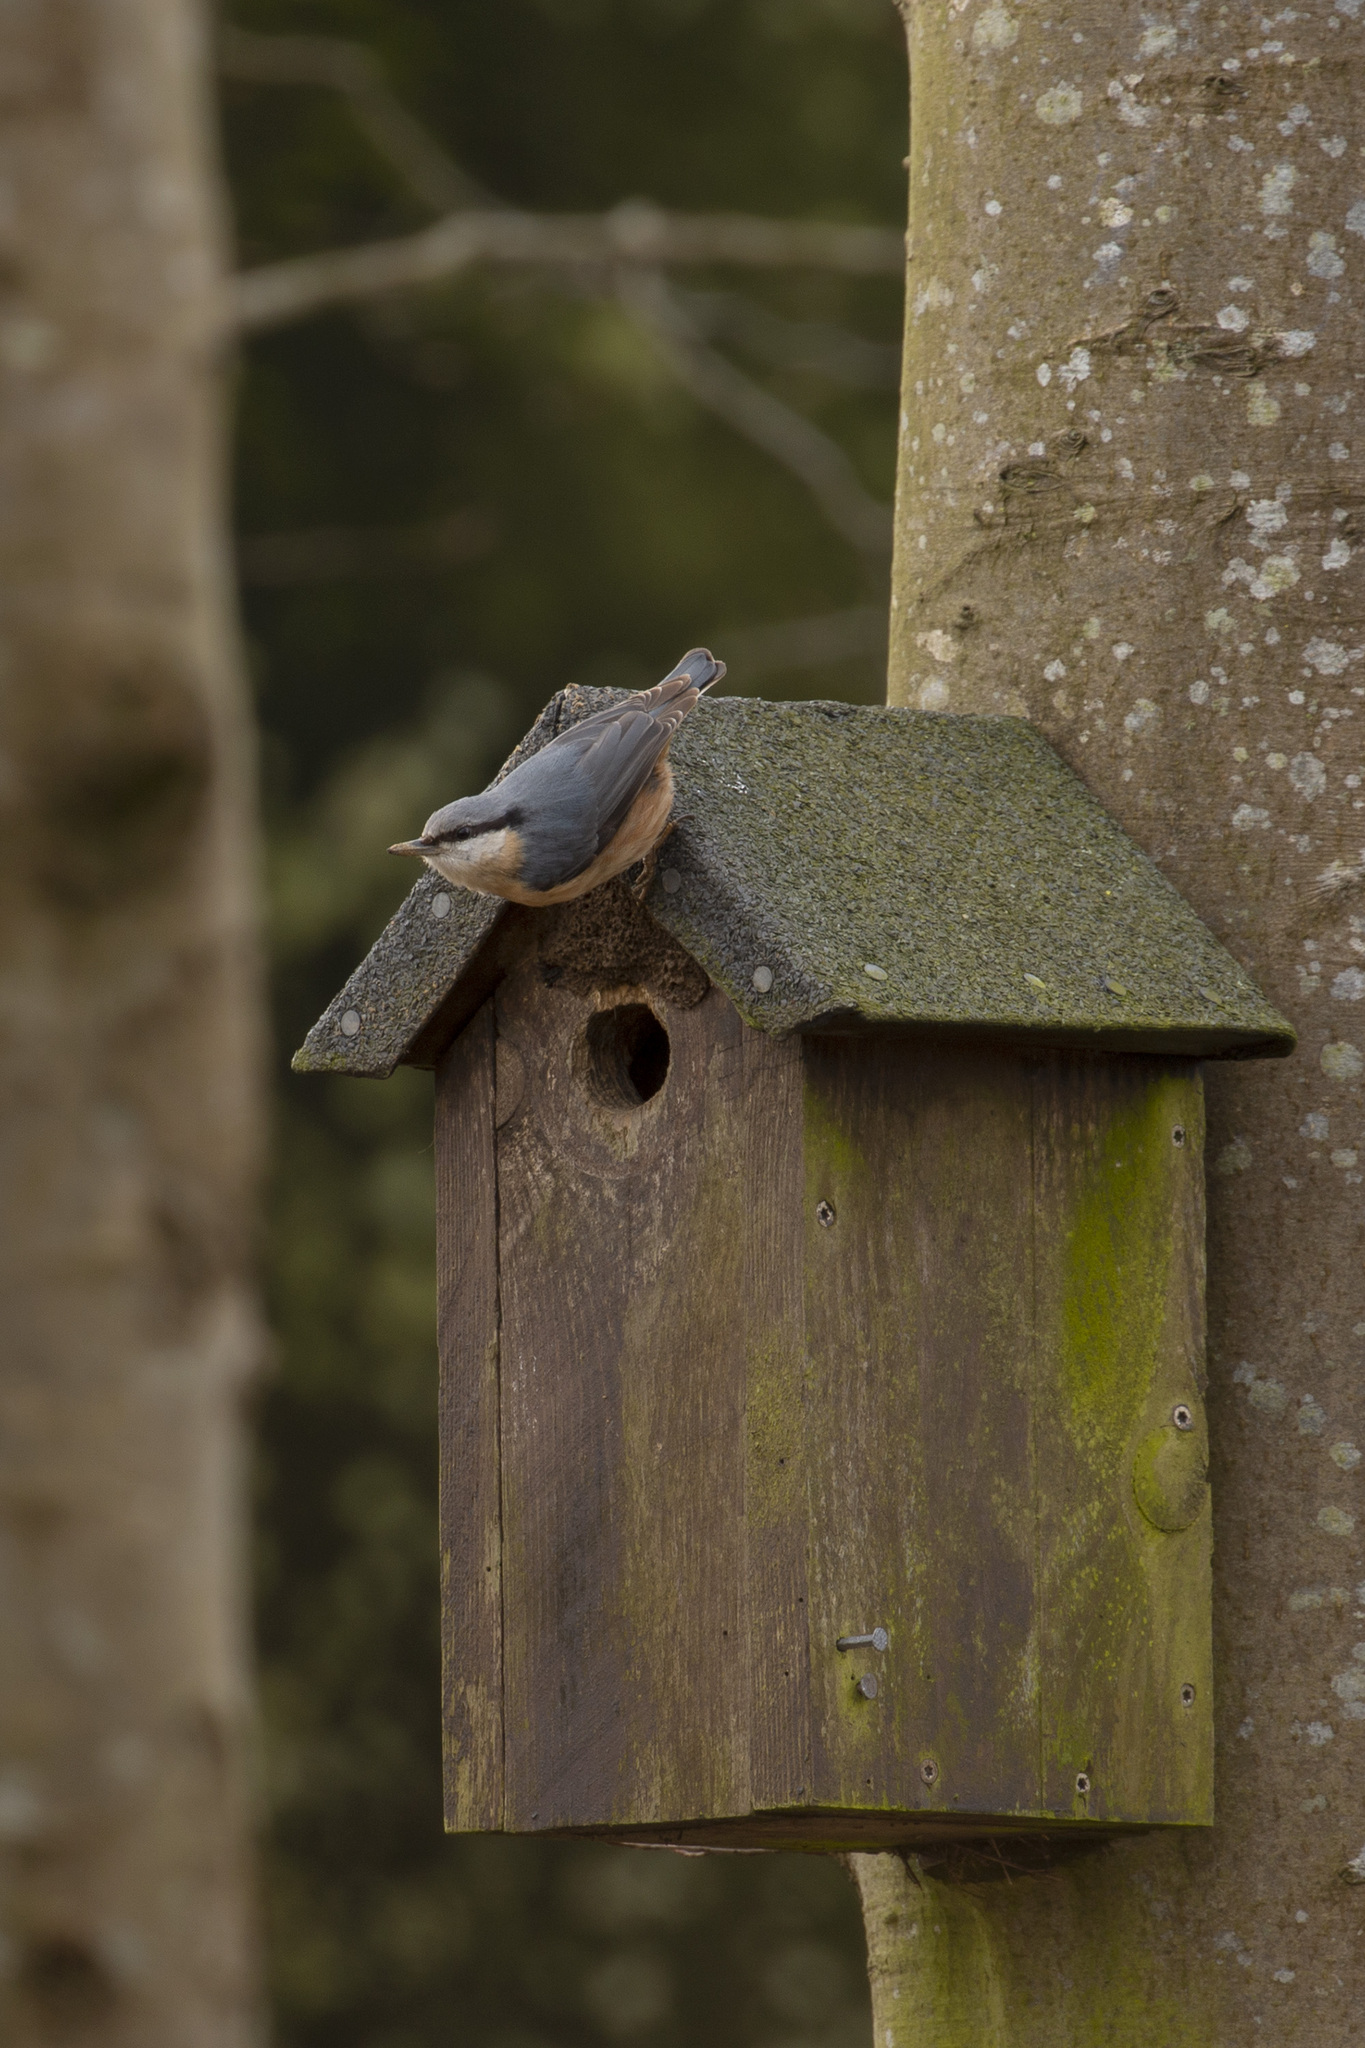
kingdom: Animalia
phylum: Chordata
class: Aves
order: Passeriformes
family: Sittidae
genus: Sitta
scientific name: Sitta europaea
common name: Eurasian nuthatch
